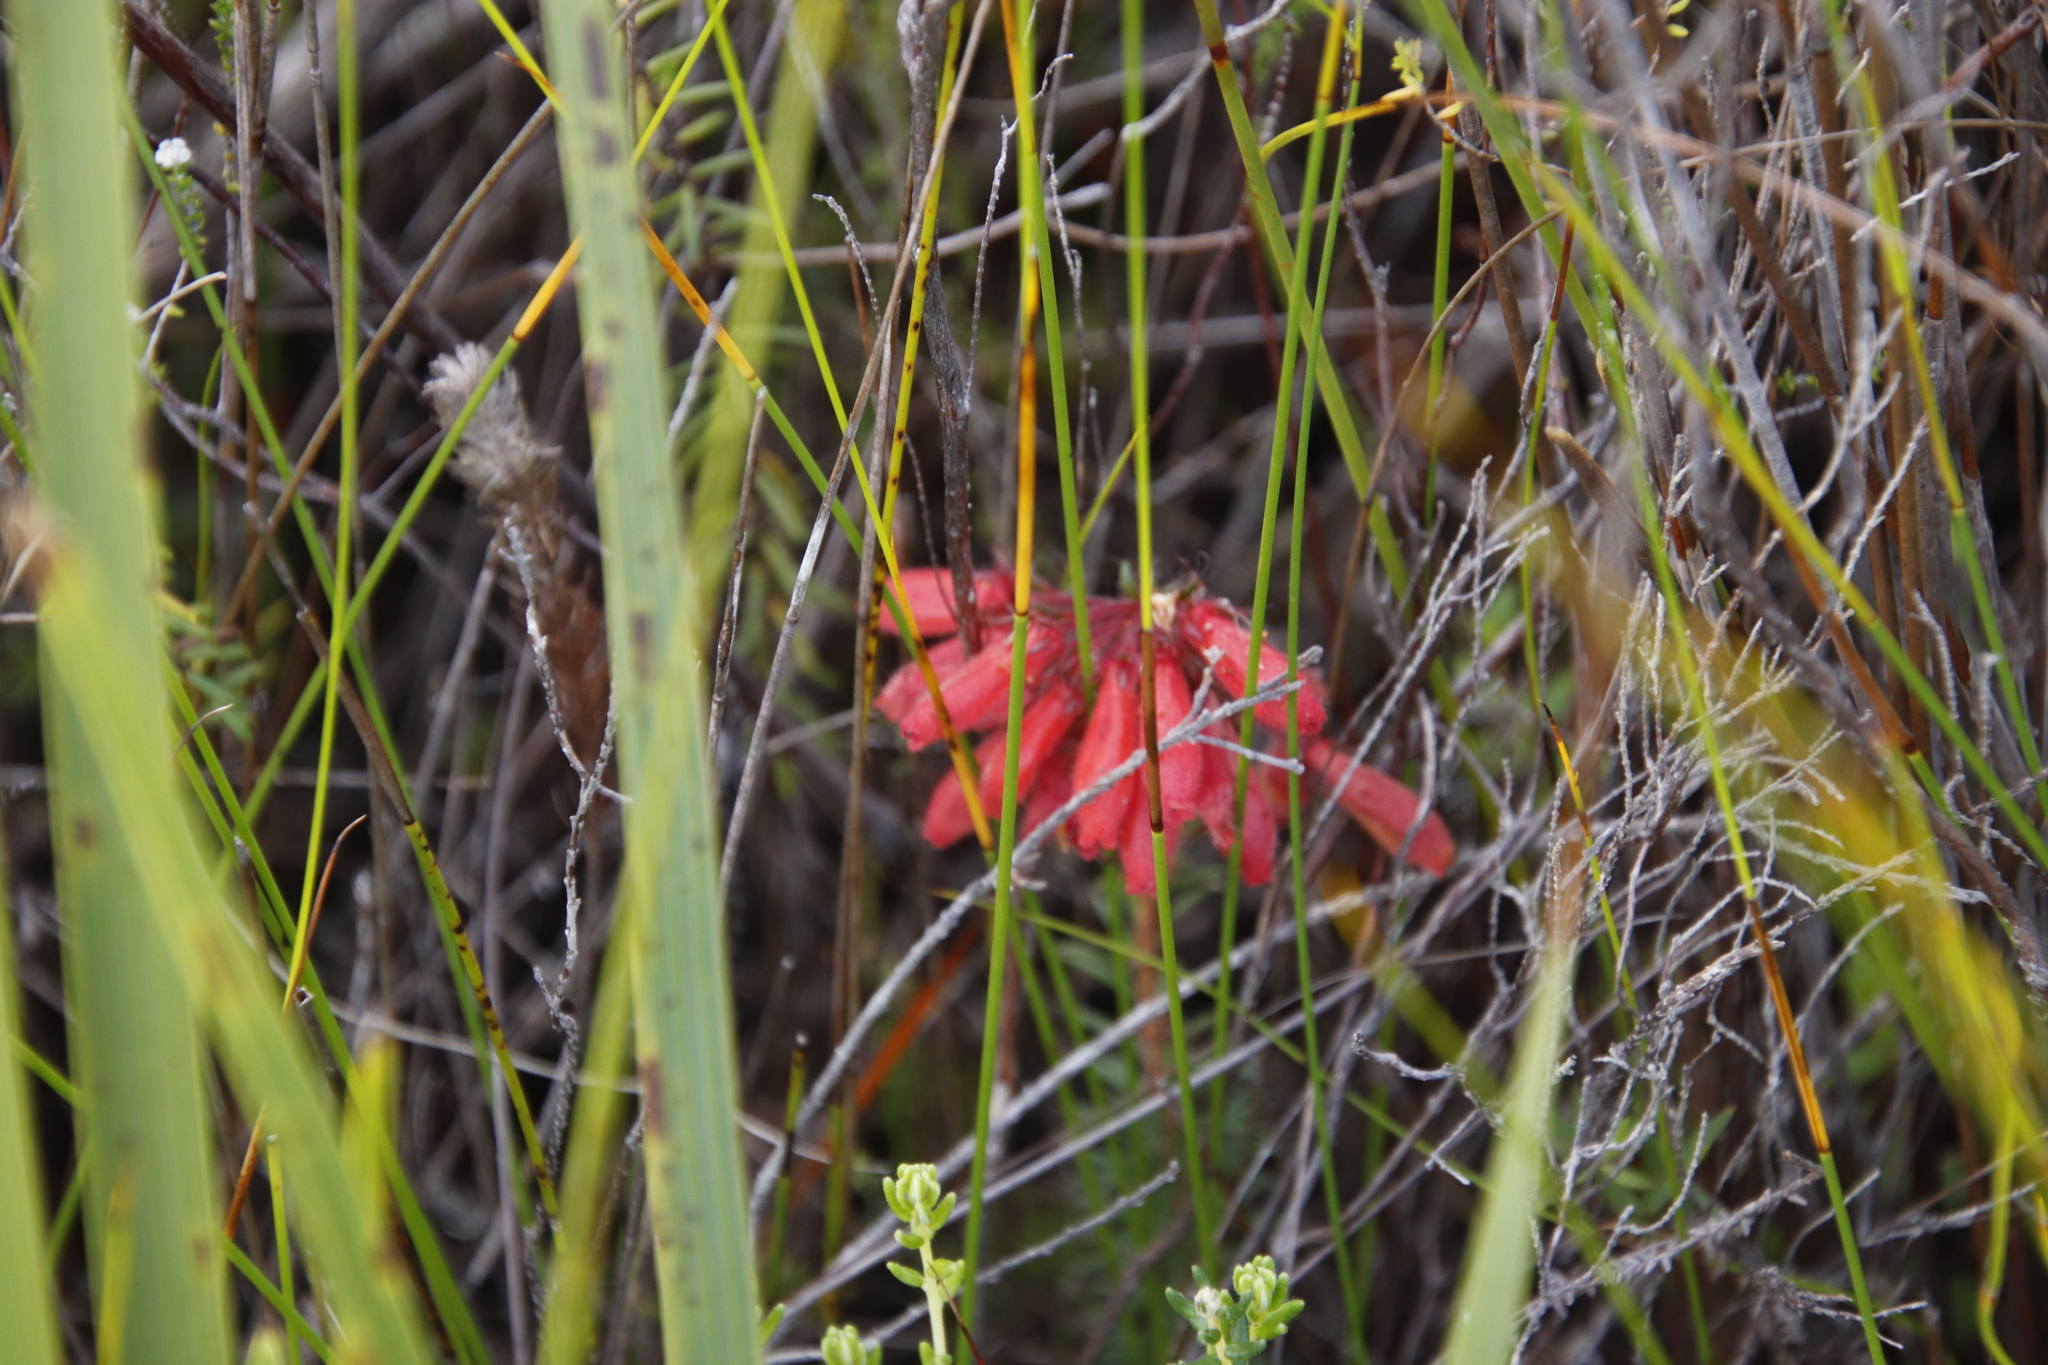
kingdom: Plantae
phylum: Tracheophyta
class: Magnoliopsida
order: Ericales
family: Ericaceae
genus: Erica
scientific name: Erica cerinthoides
